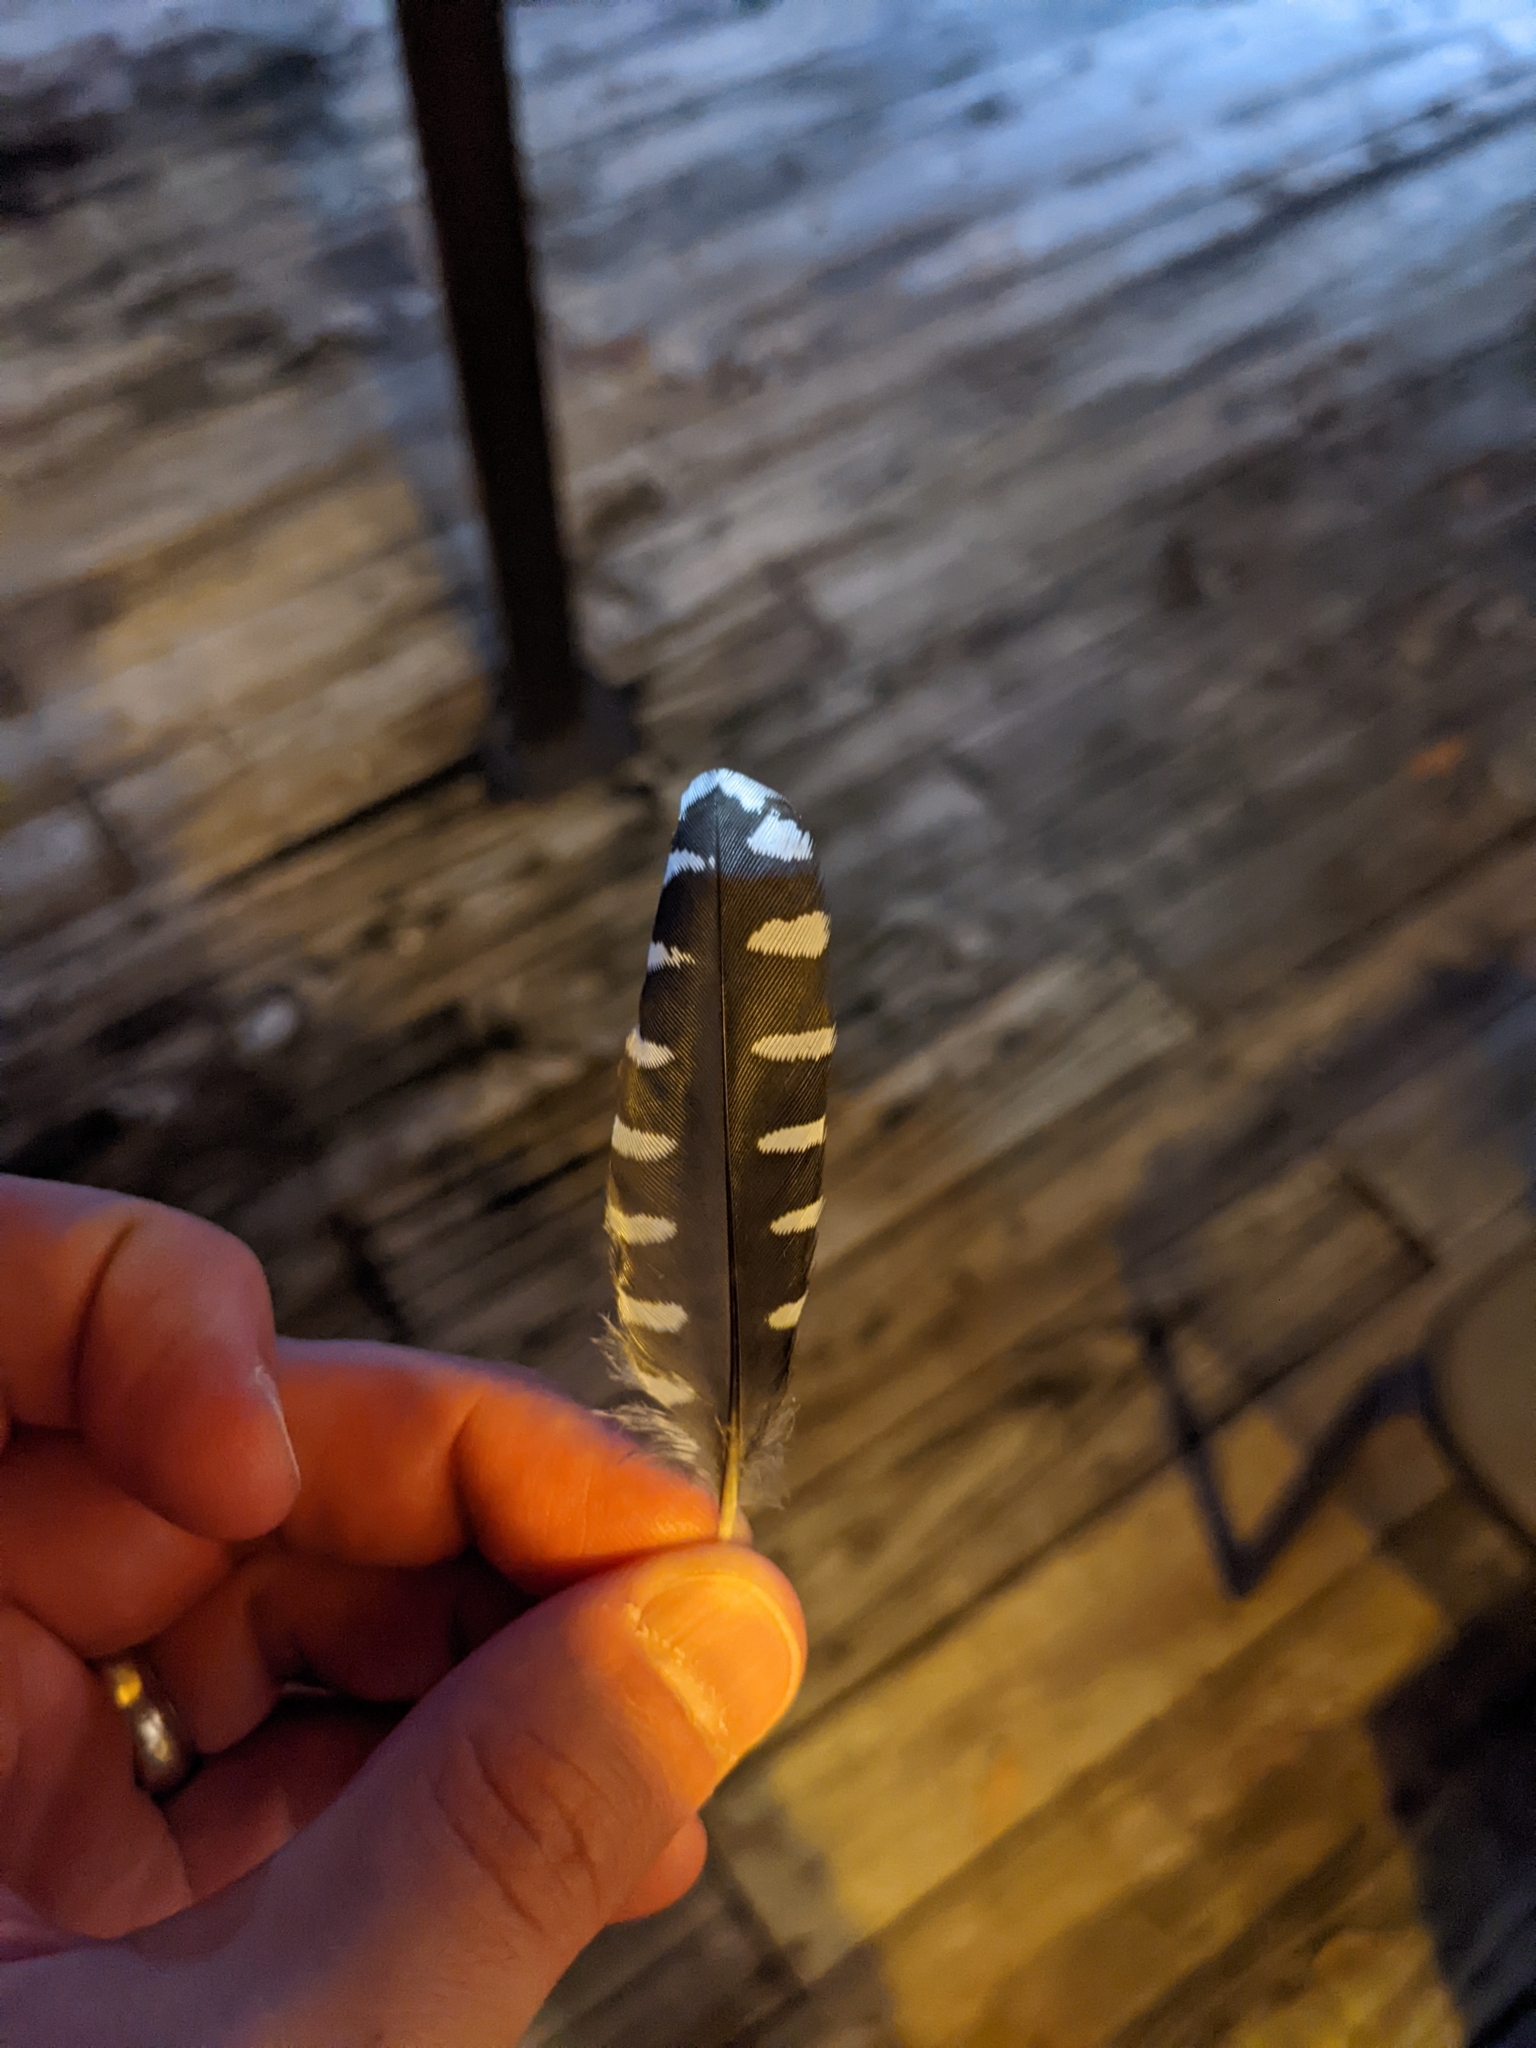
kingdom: Animalia
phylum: Chordata
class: Aves
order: Piciformes
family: Picidae
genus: Melanerpes
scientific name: Melanerpes carolinus
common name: Red-bellied woodpecker
